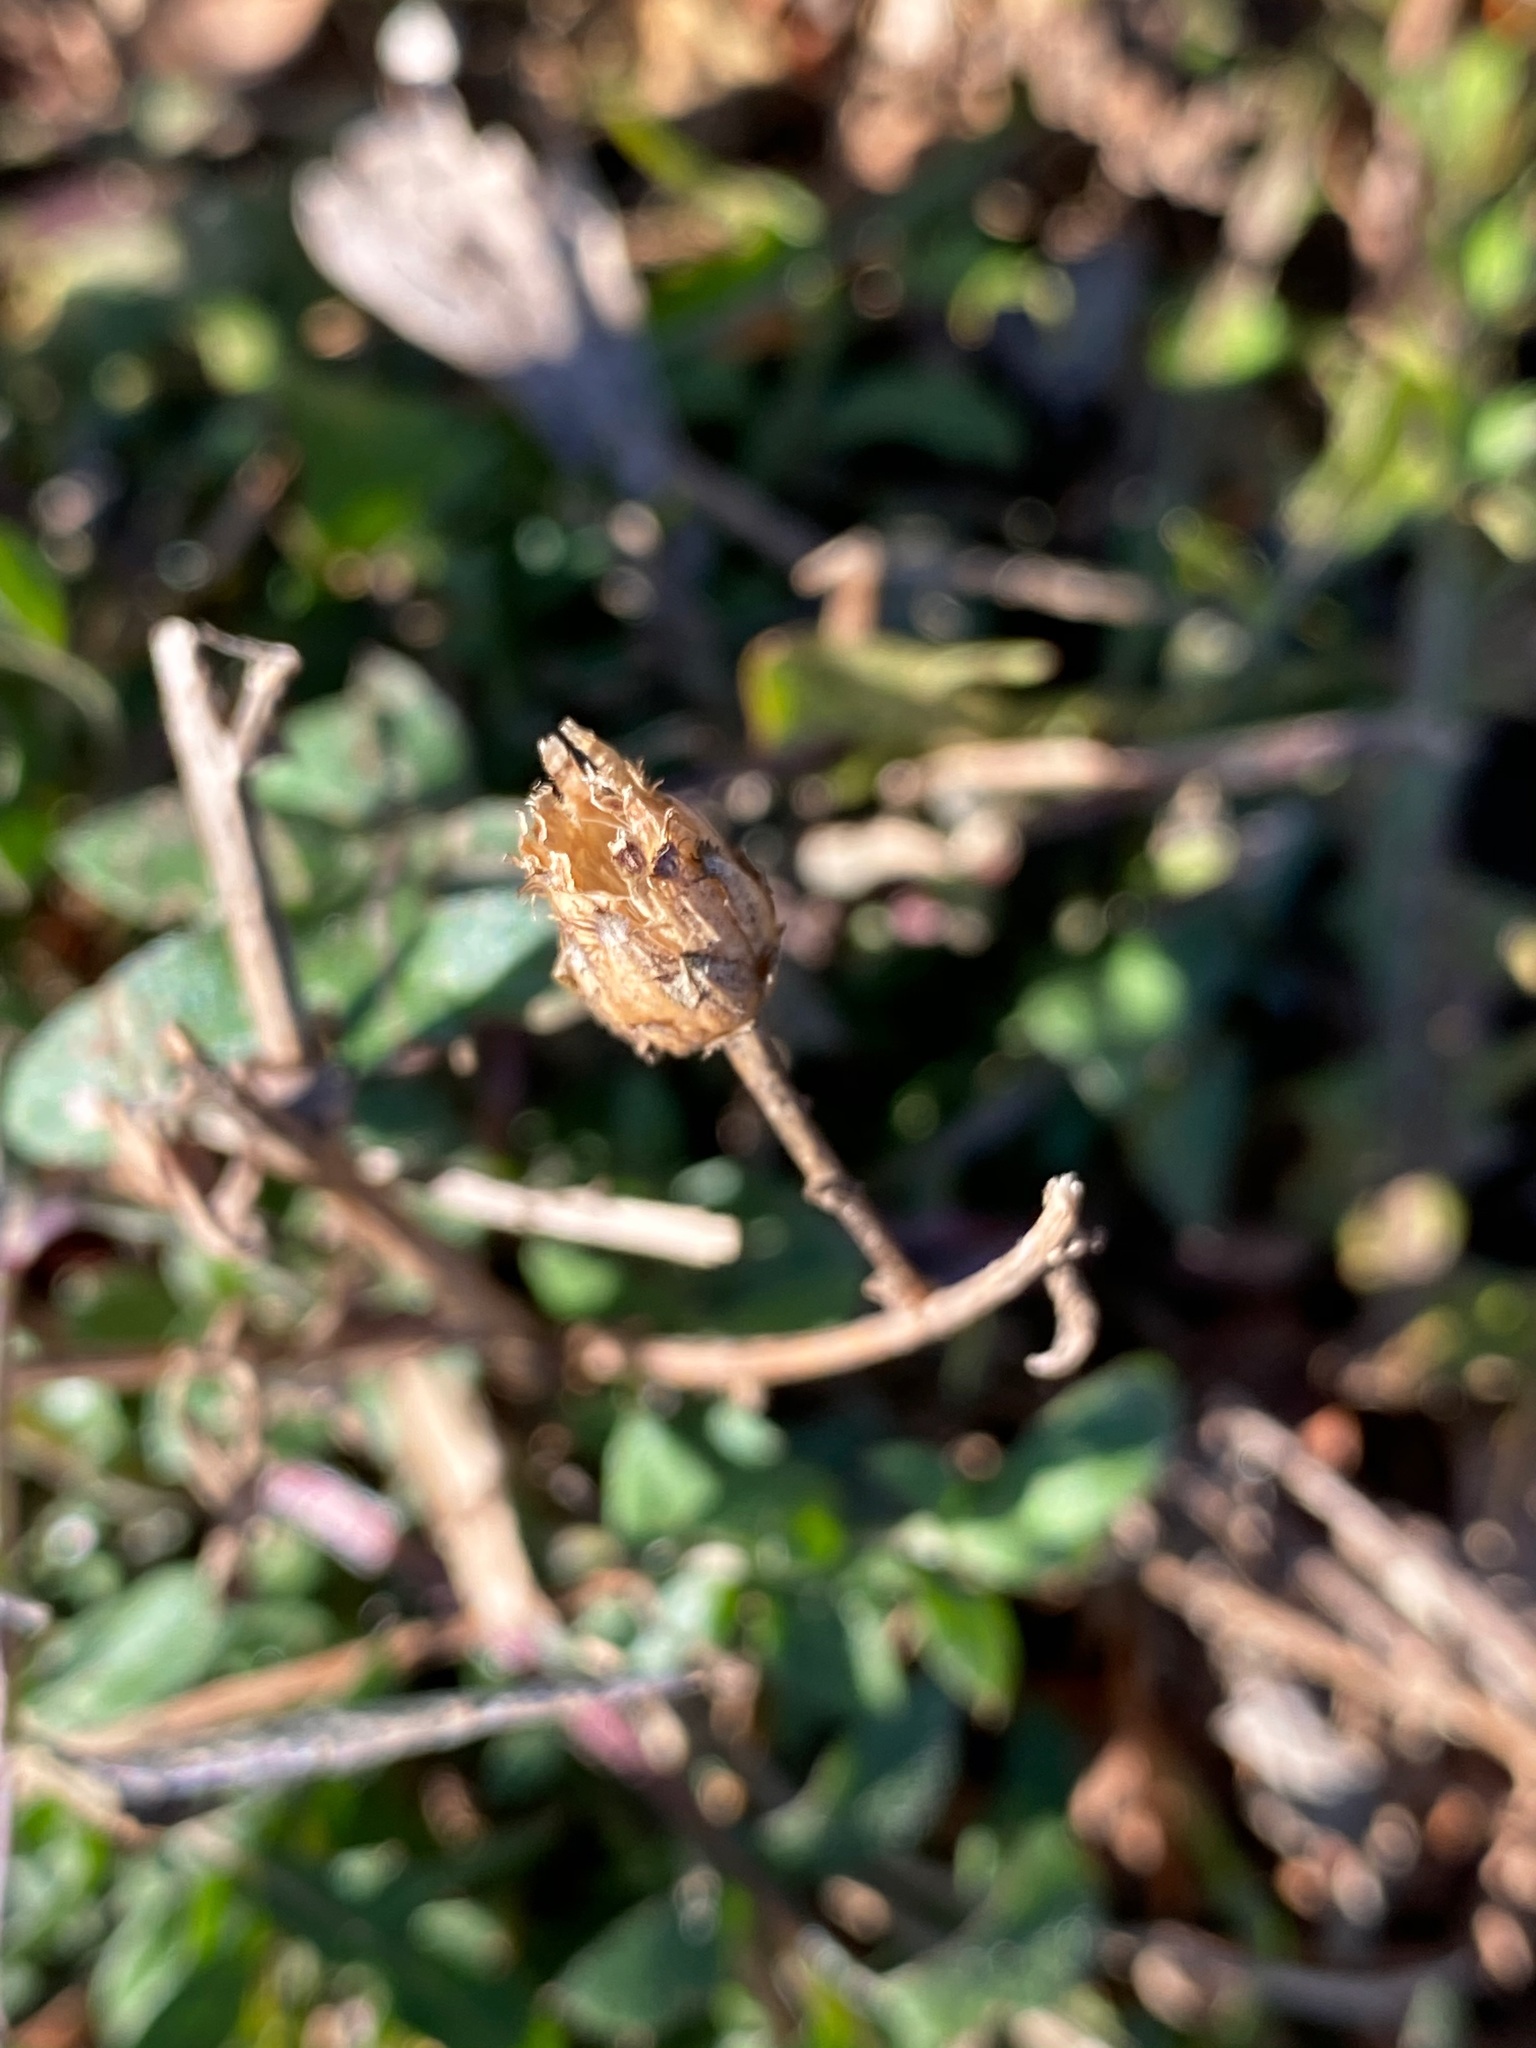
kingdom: Plantae
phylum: Tracheophyta
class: Magnoliopsida
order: Asterales
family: Asteraceae
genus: Centaurea
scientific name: Centaurea stoebe
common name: Spotted knapweed
